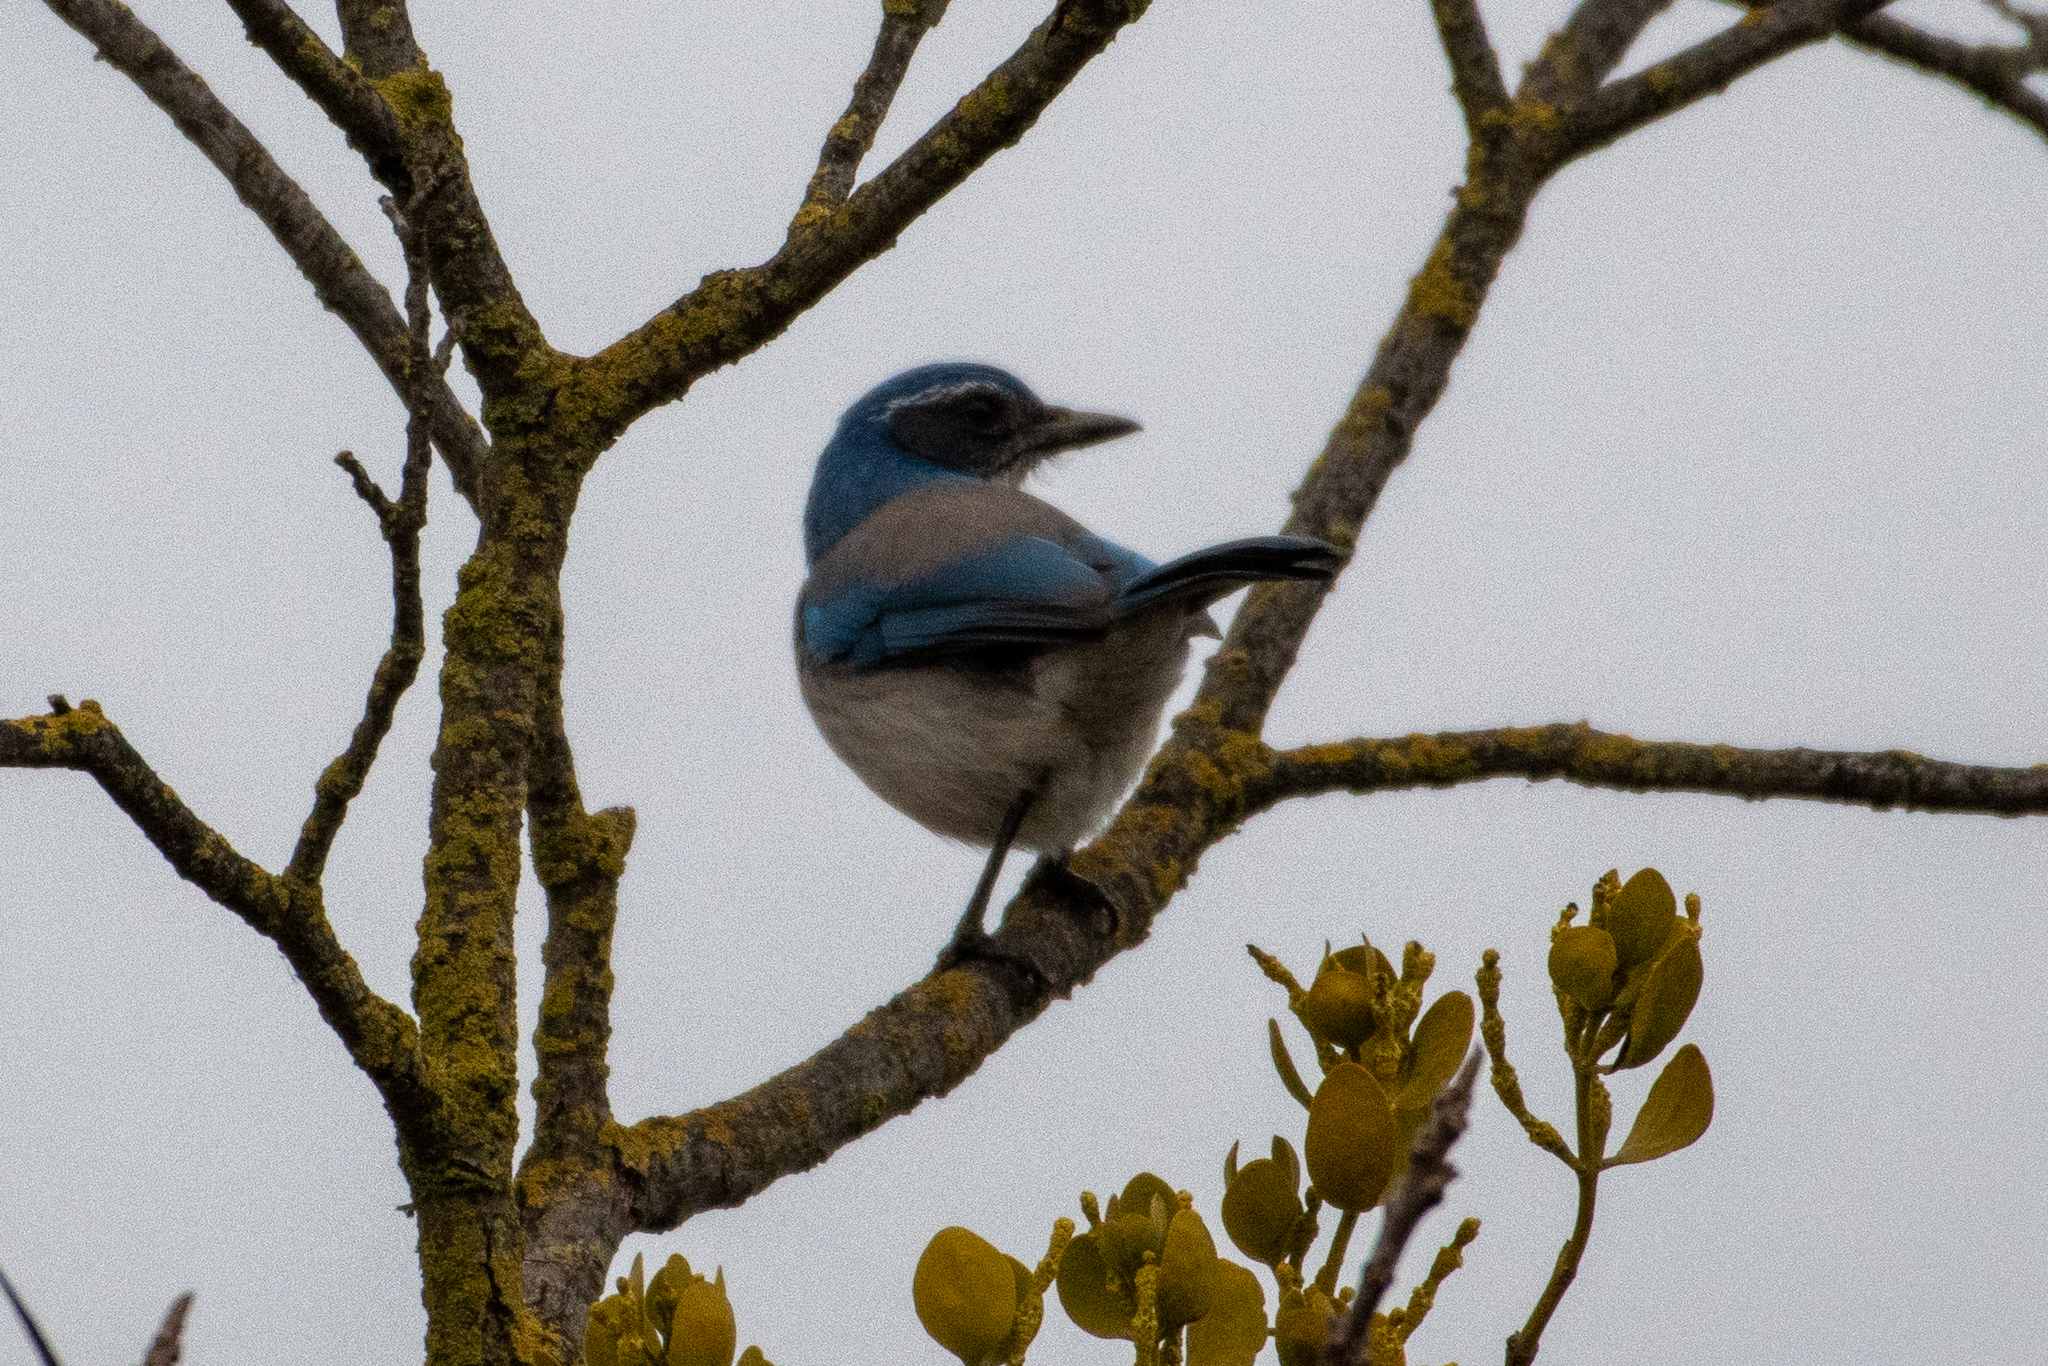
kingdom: Animalia
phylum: Chordata
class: Aves
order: Passeriformes
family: Corvidae
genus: Aphelocoma
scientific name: Aphelocoma californica
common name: California scrub-jay
